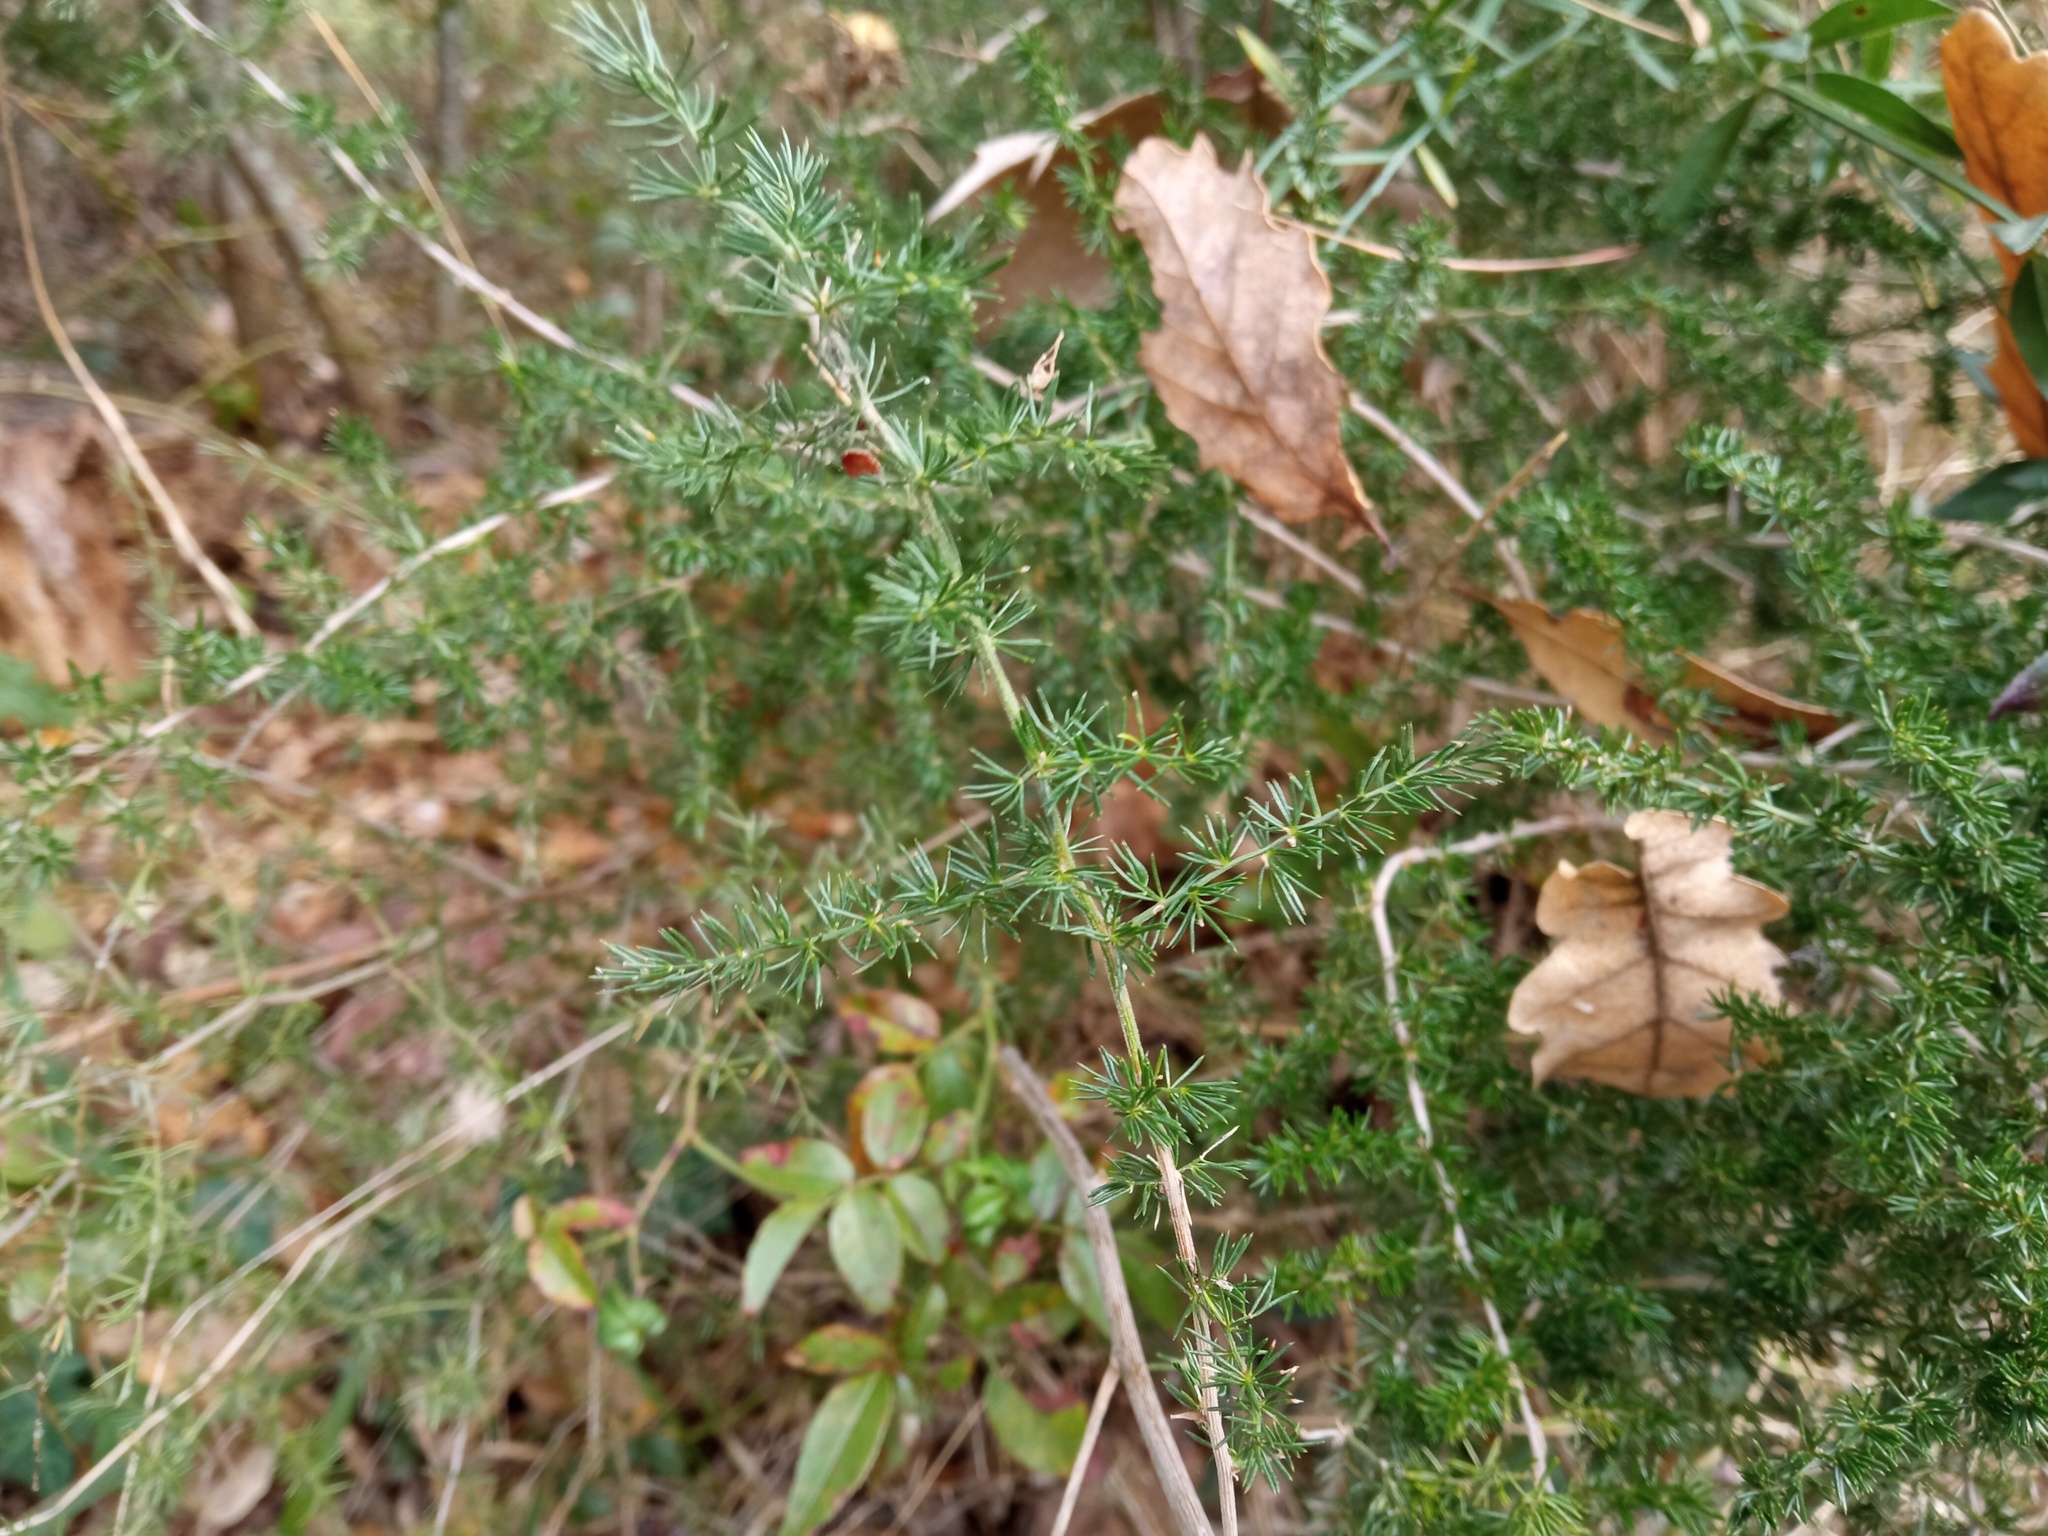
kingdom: Plantae
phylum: Tracheophyta
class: Liliopsida
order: Asparagales
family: Asparagaceae
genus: Asparagus
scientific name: Asparagus acutifolius
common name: Wild asparagus
